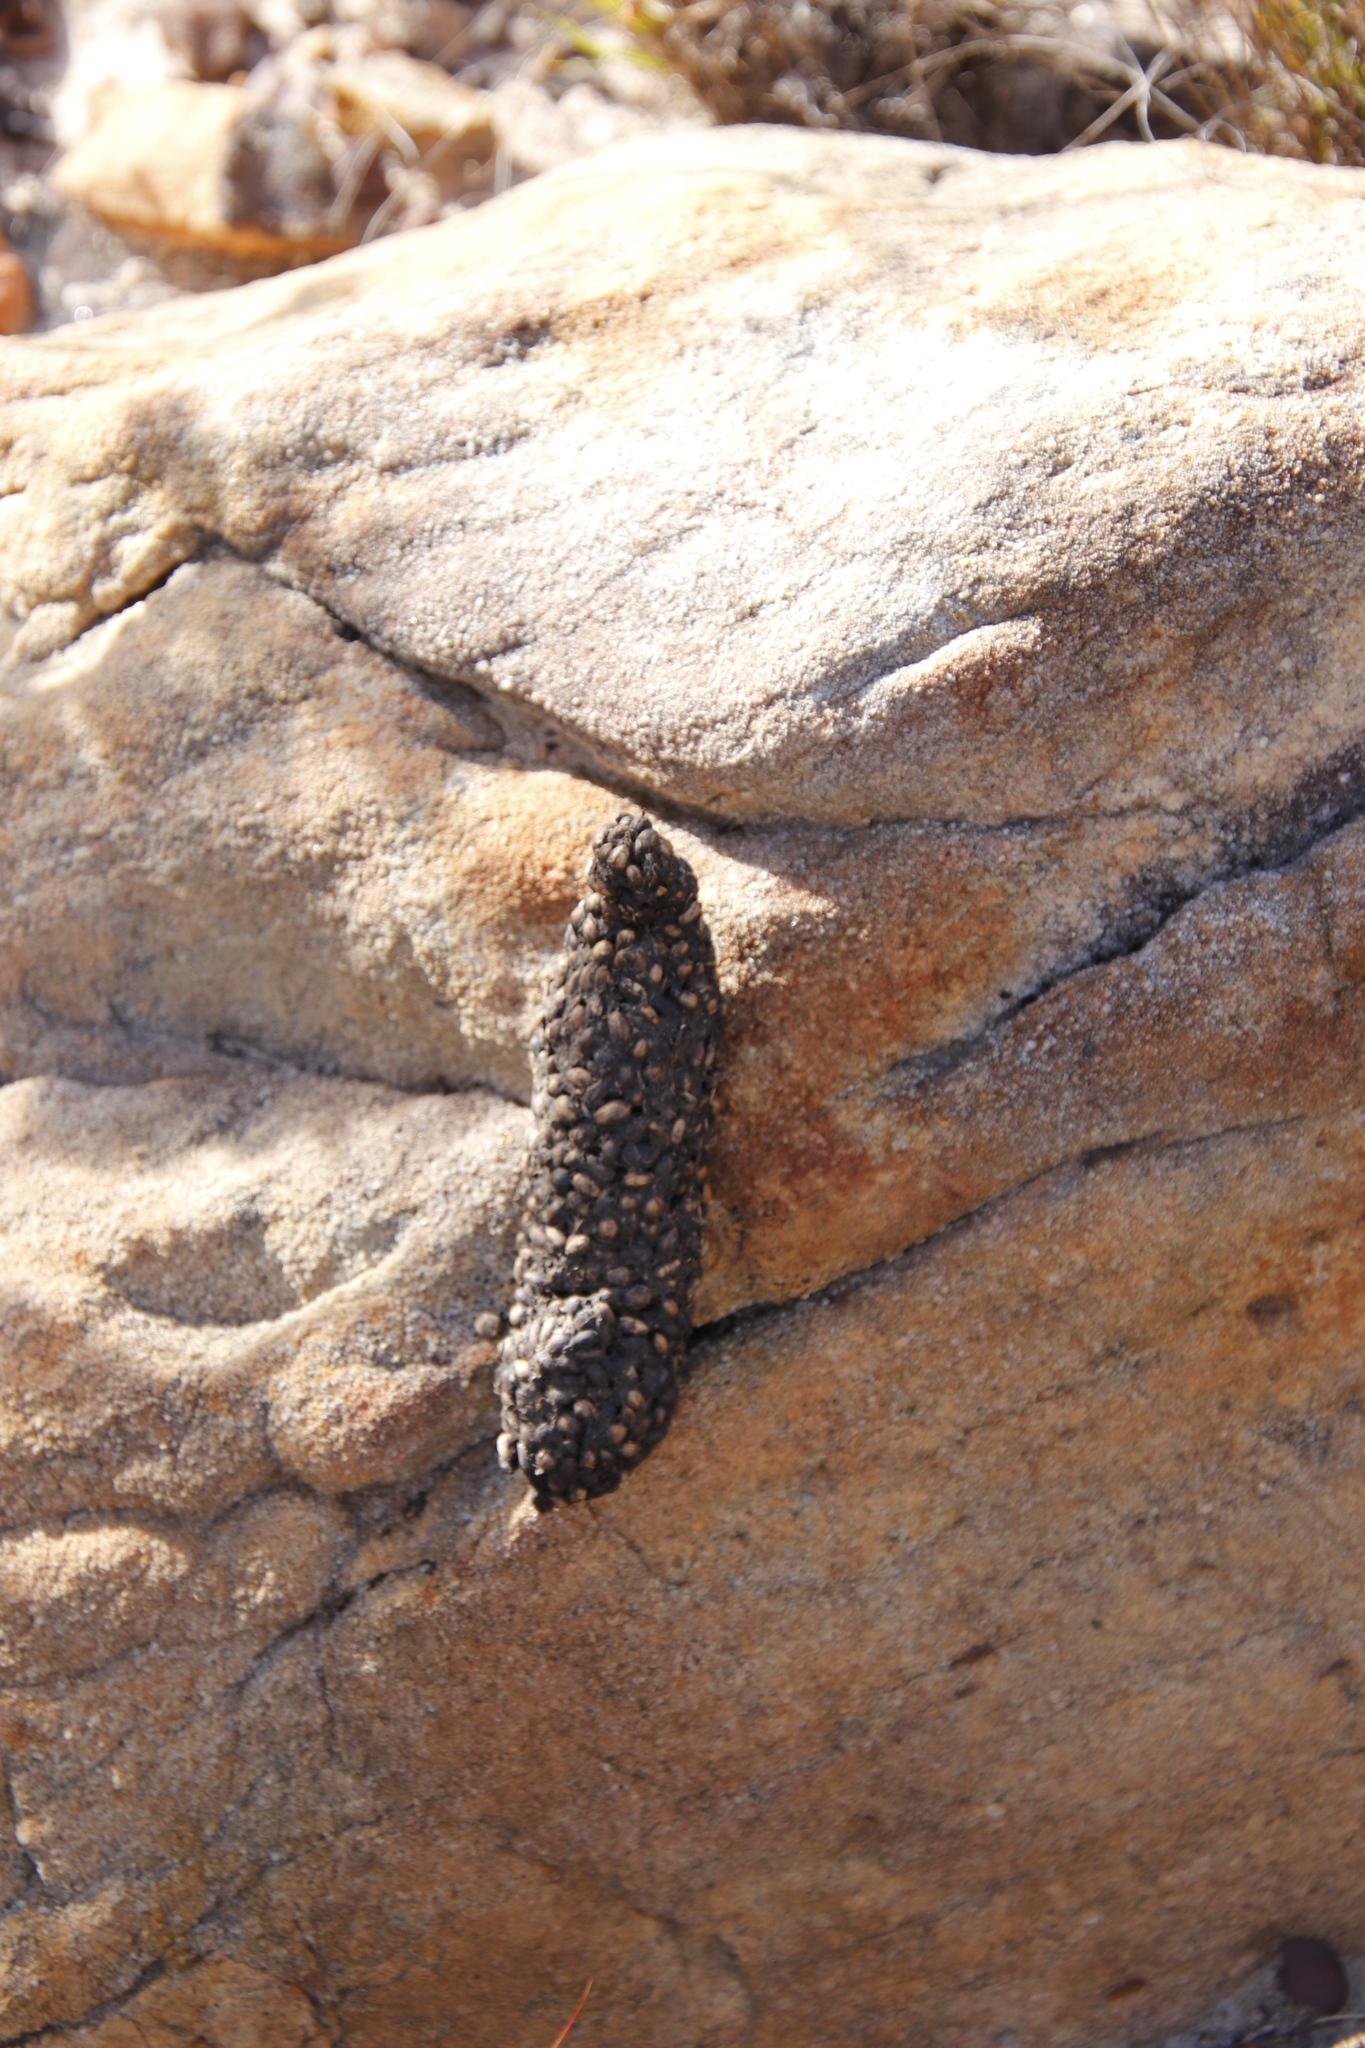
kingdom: Animalia
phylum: Chordata
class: Mammalia
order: Primates
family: Cercopithecidae
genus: Papio
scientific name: Papio ursinus
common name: Chacma baboon
